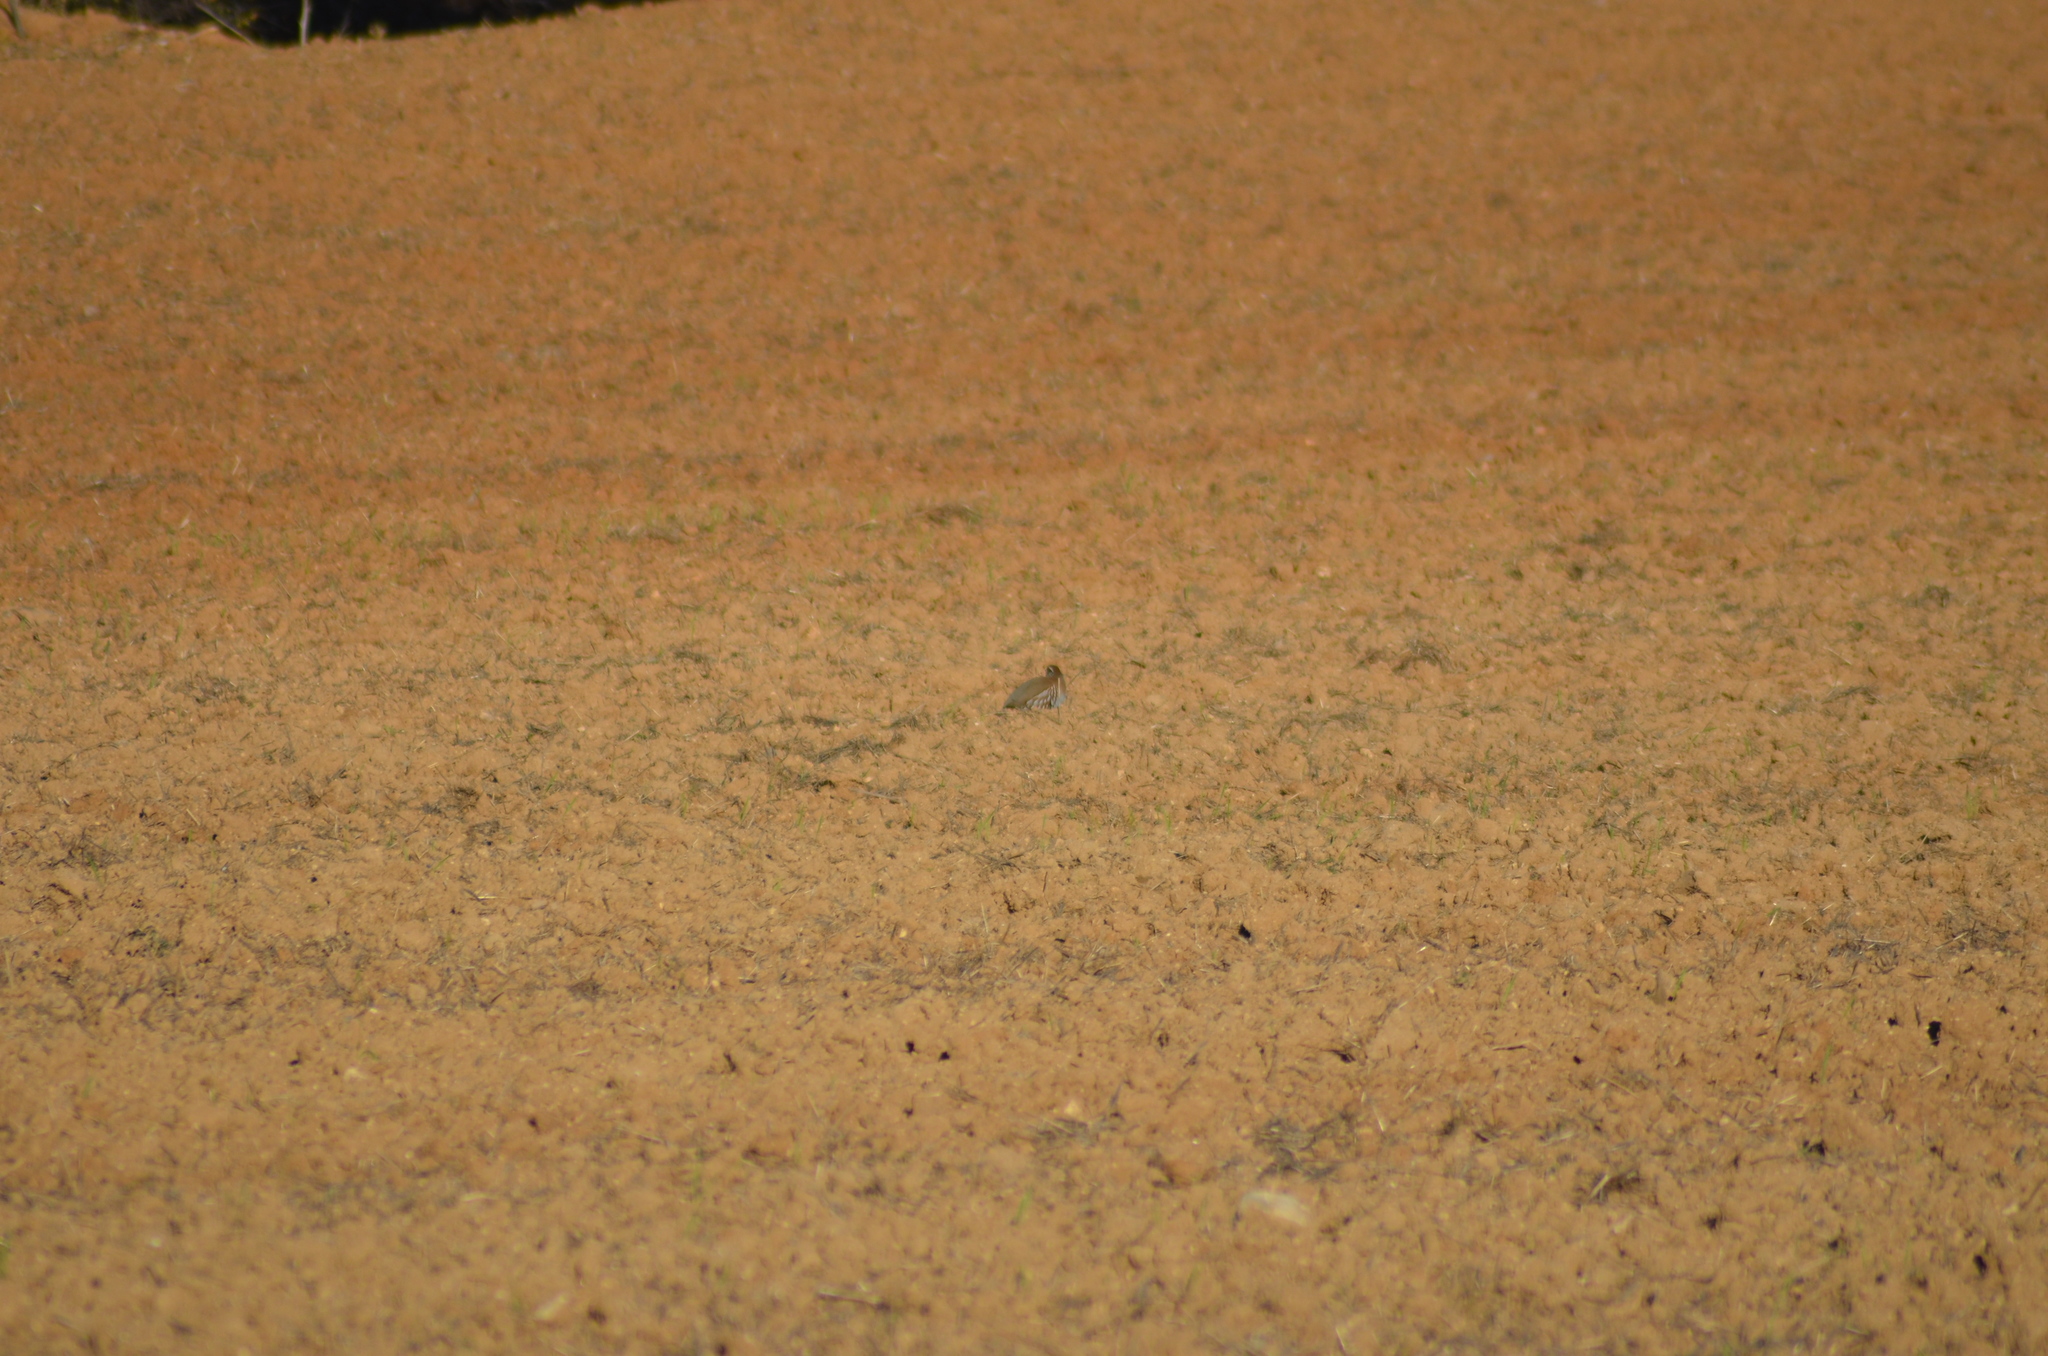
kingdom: Animalia
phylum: Chordata
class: Aves
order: Galliformes
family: Phasianidae
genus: Alectoris
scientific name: Alectoris rufa
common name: Red-legged partridge
